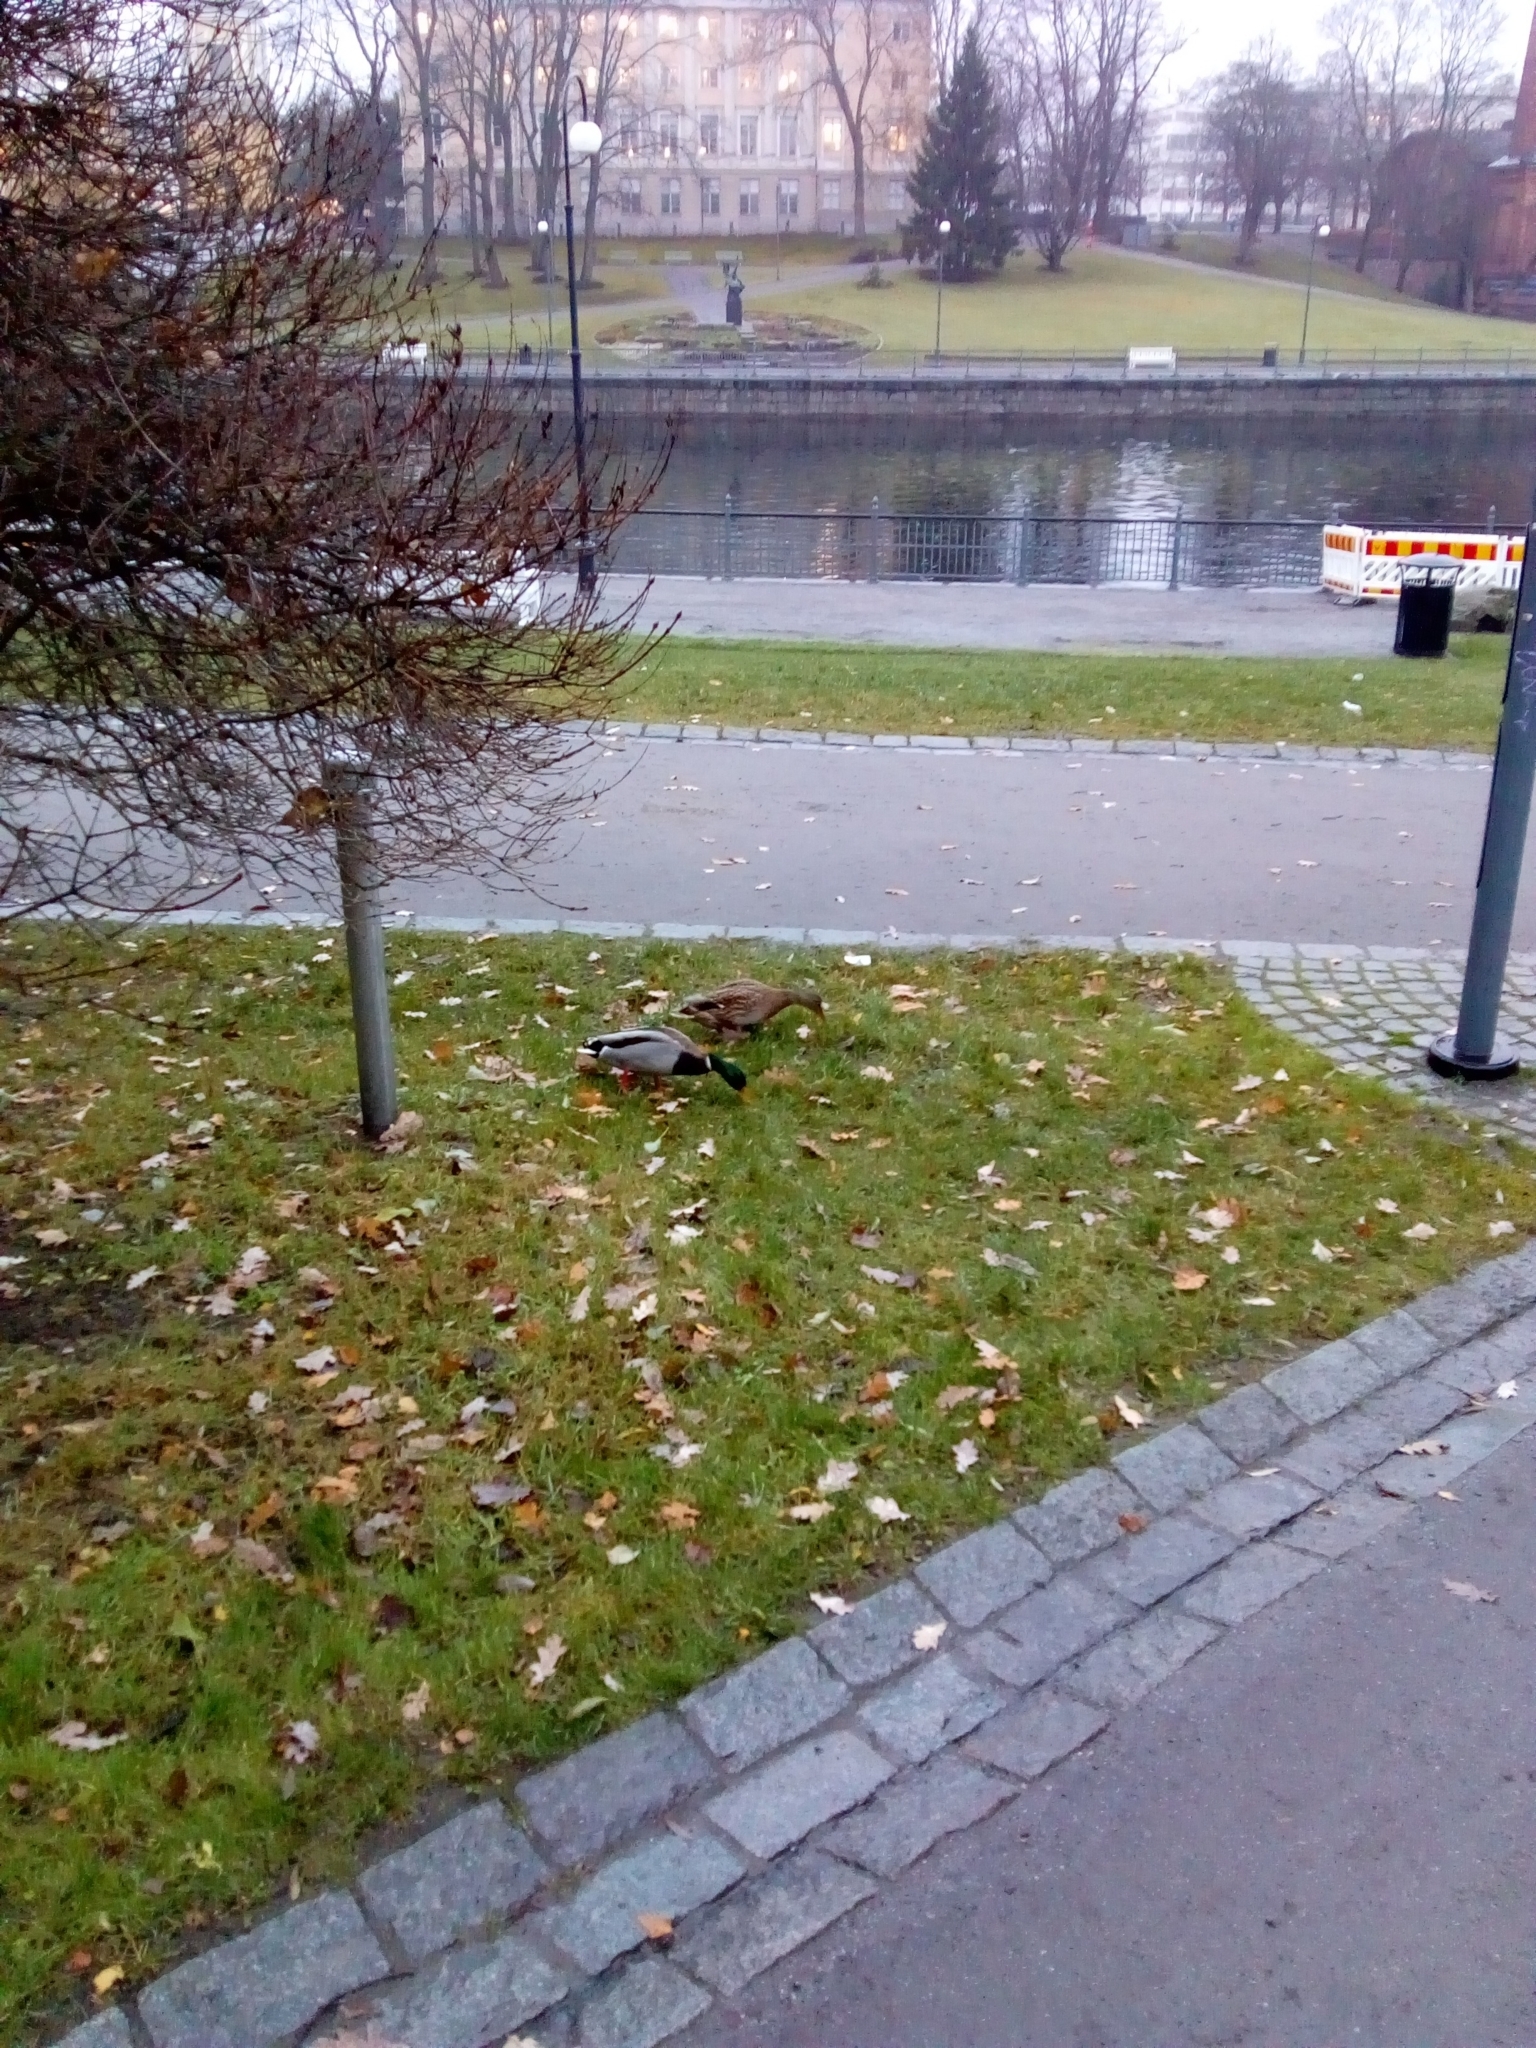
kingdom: Animalia
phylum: Chordata
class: Aves
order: Anseriformes
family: Anatidae
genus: Anas
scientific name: Anas platyrhynchos
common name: Mallard
